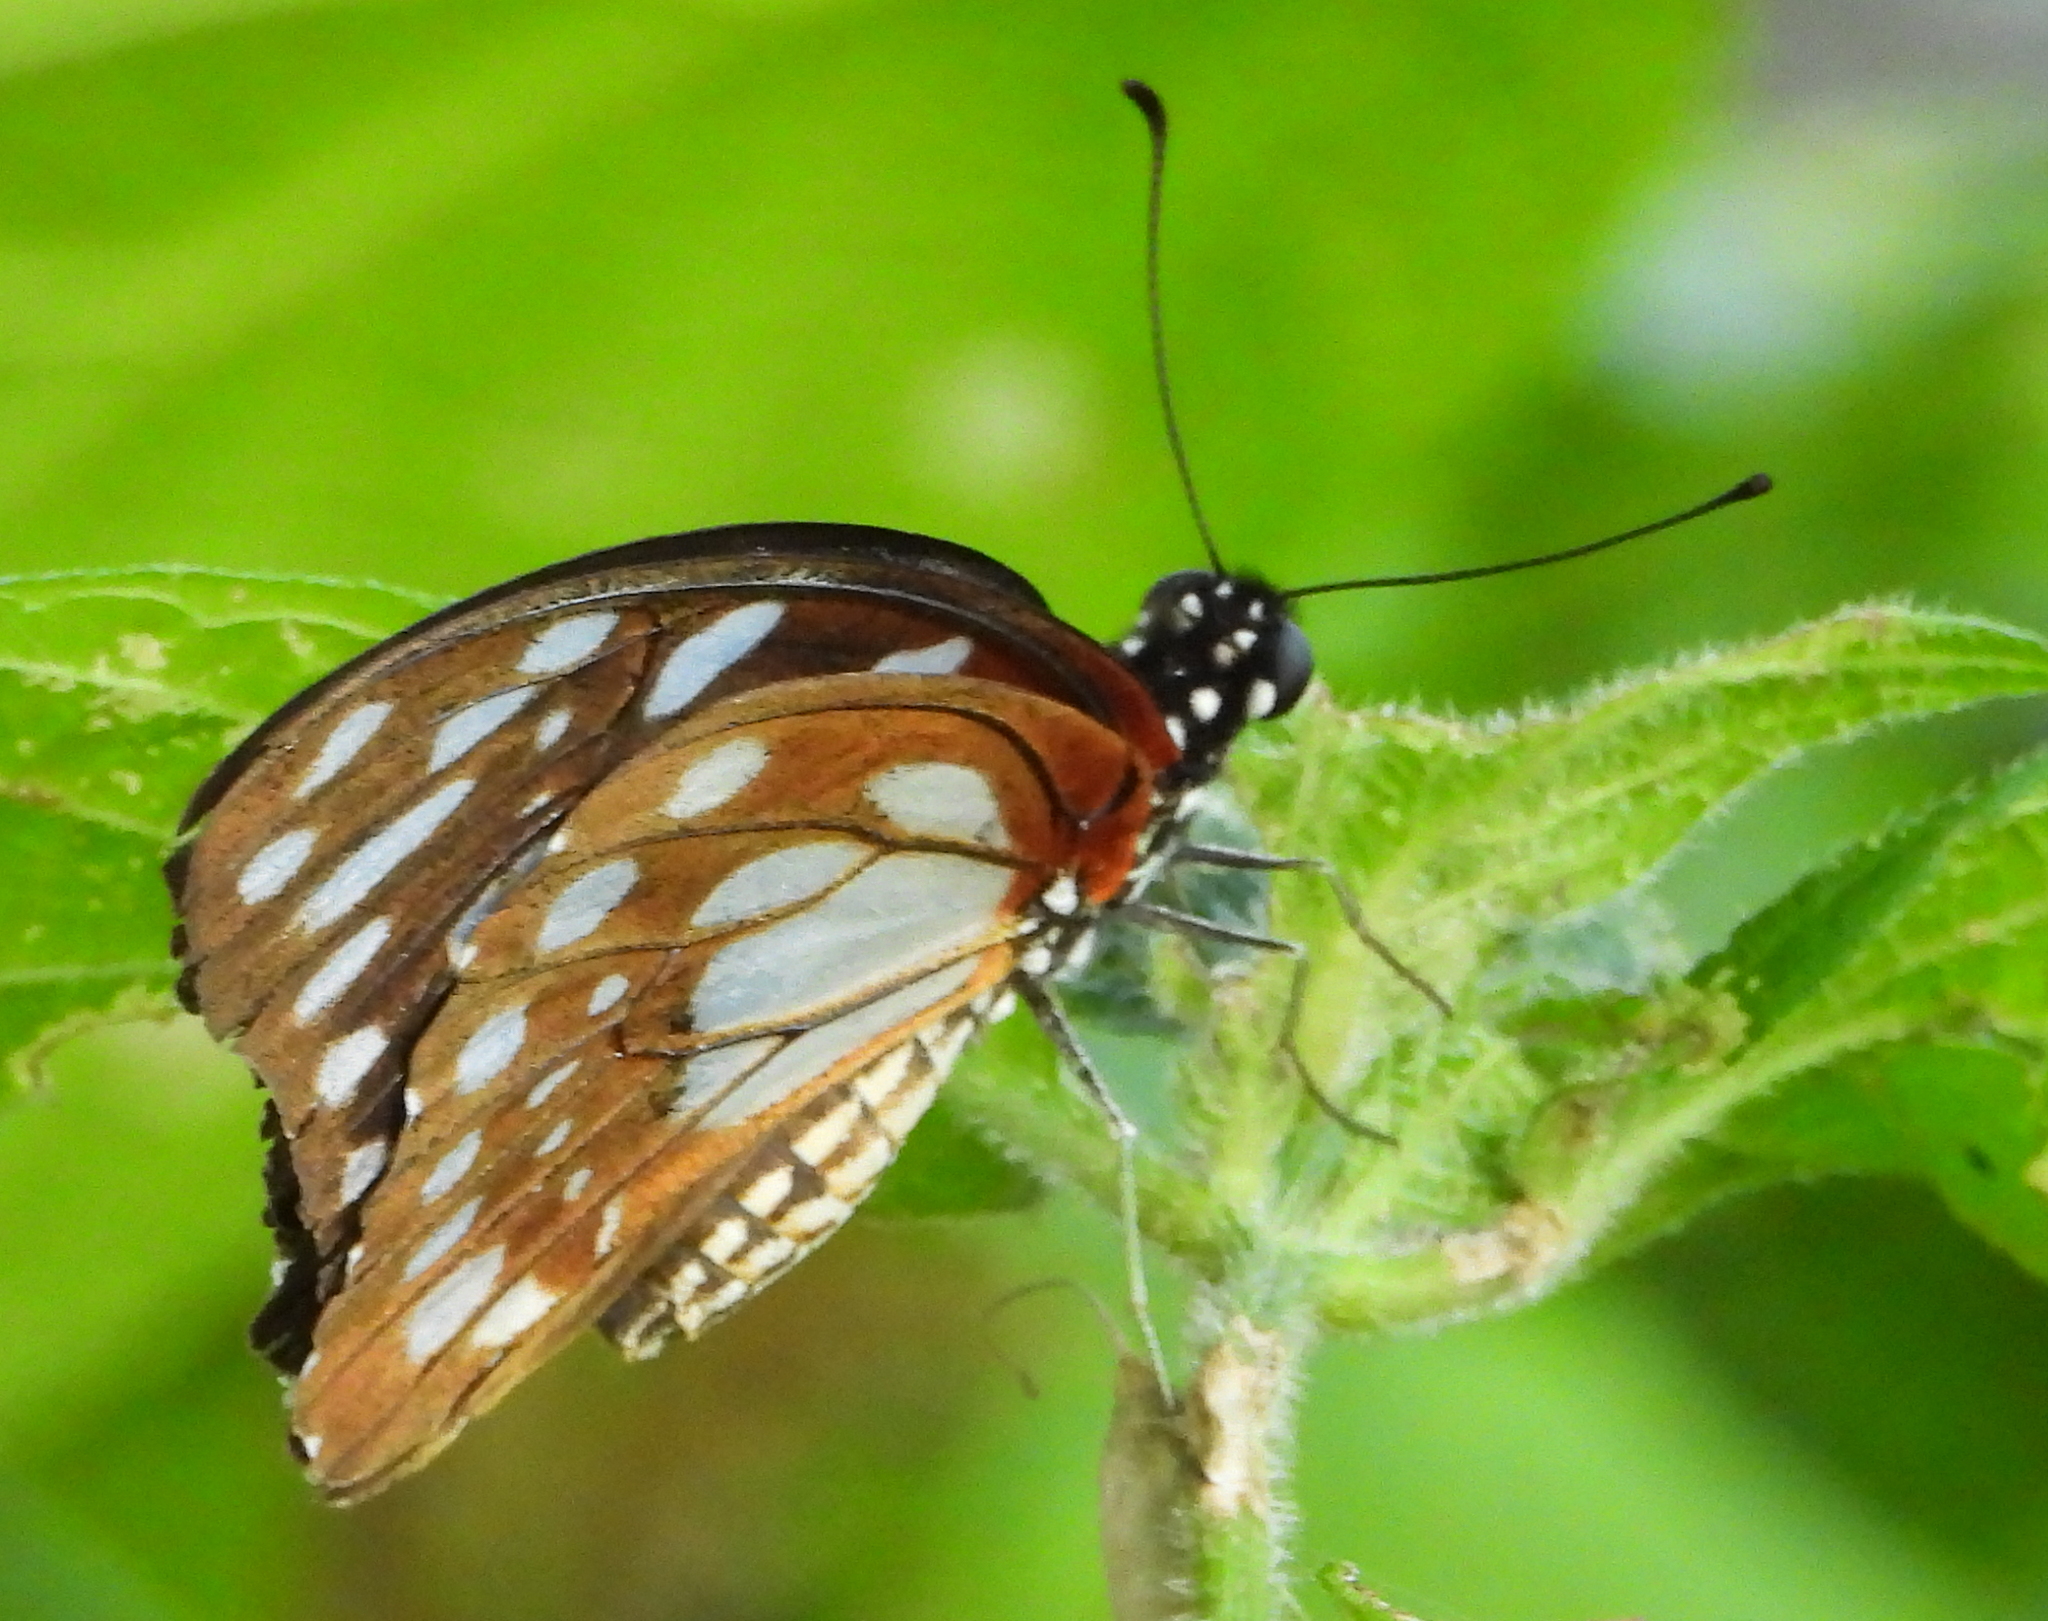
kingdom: Animalia
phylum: Arthropoda
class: Insecta
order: Lepidoptera
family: Papilionidae
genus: Graphium
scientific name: Graphium leonidas
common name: Common graphium
